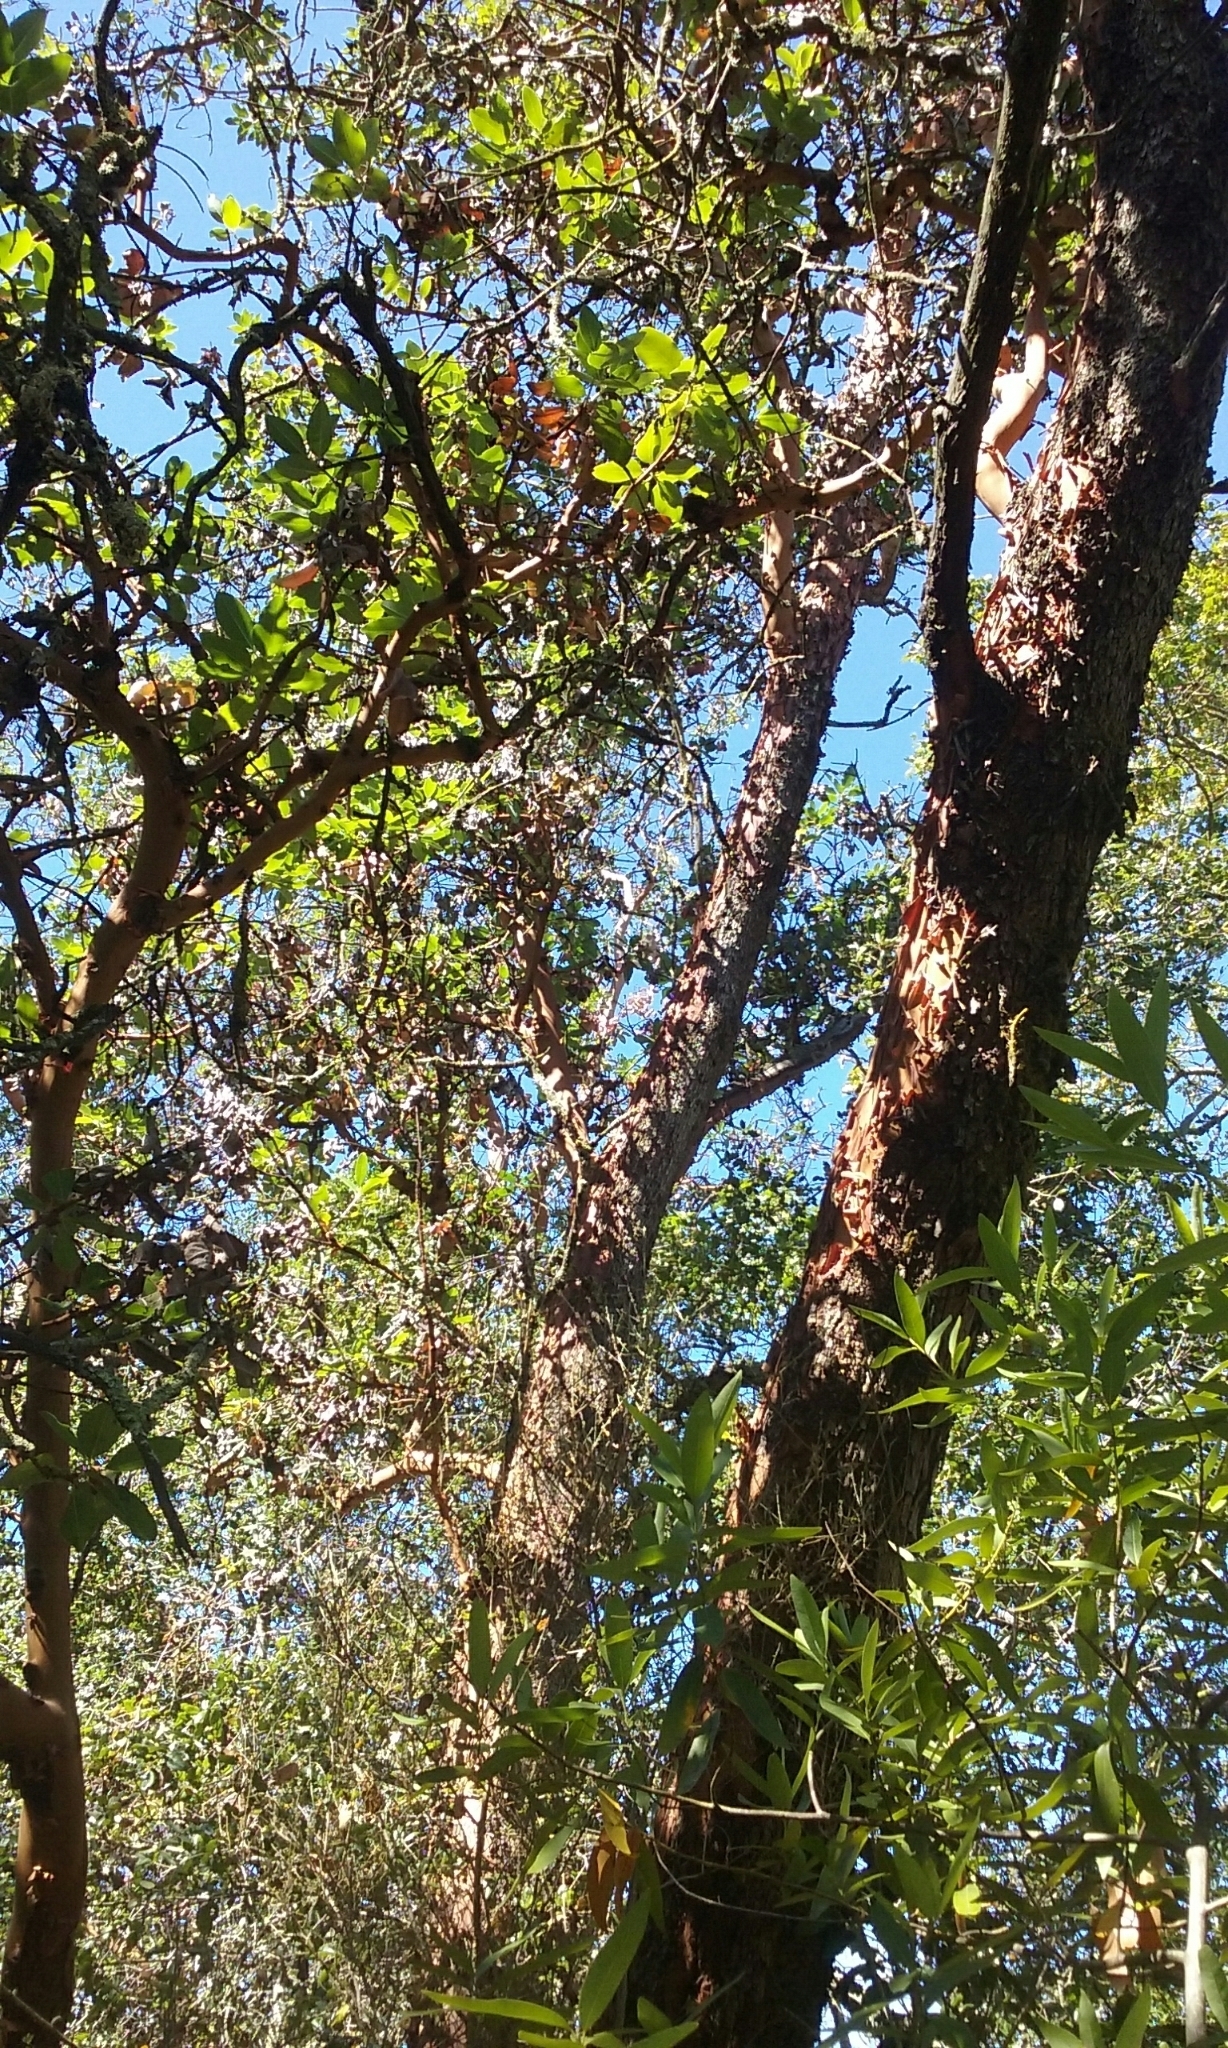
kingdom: Plantae
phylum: Tracheophyta
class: Magnoliopsida
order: Ericales
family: Ericaceae
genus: Arbutus
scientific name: Arbutus menziesii
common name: Pacific madrone
